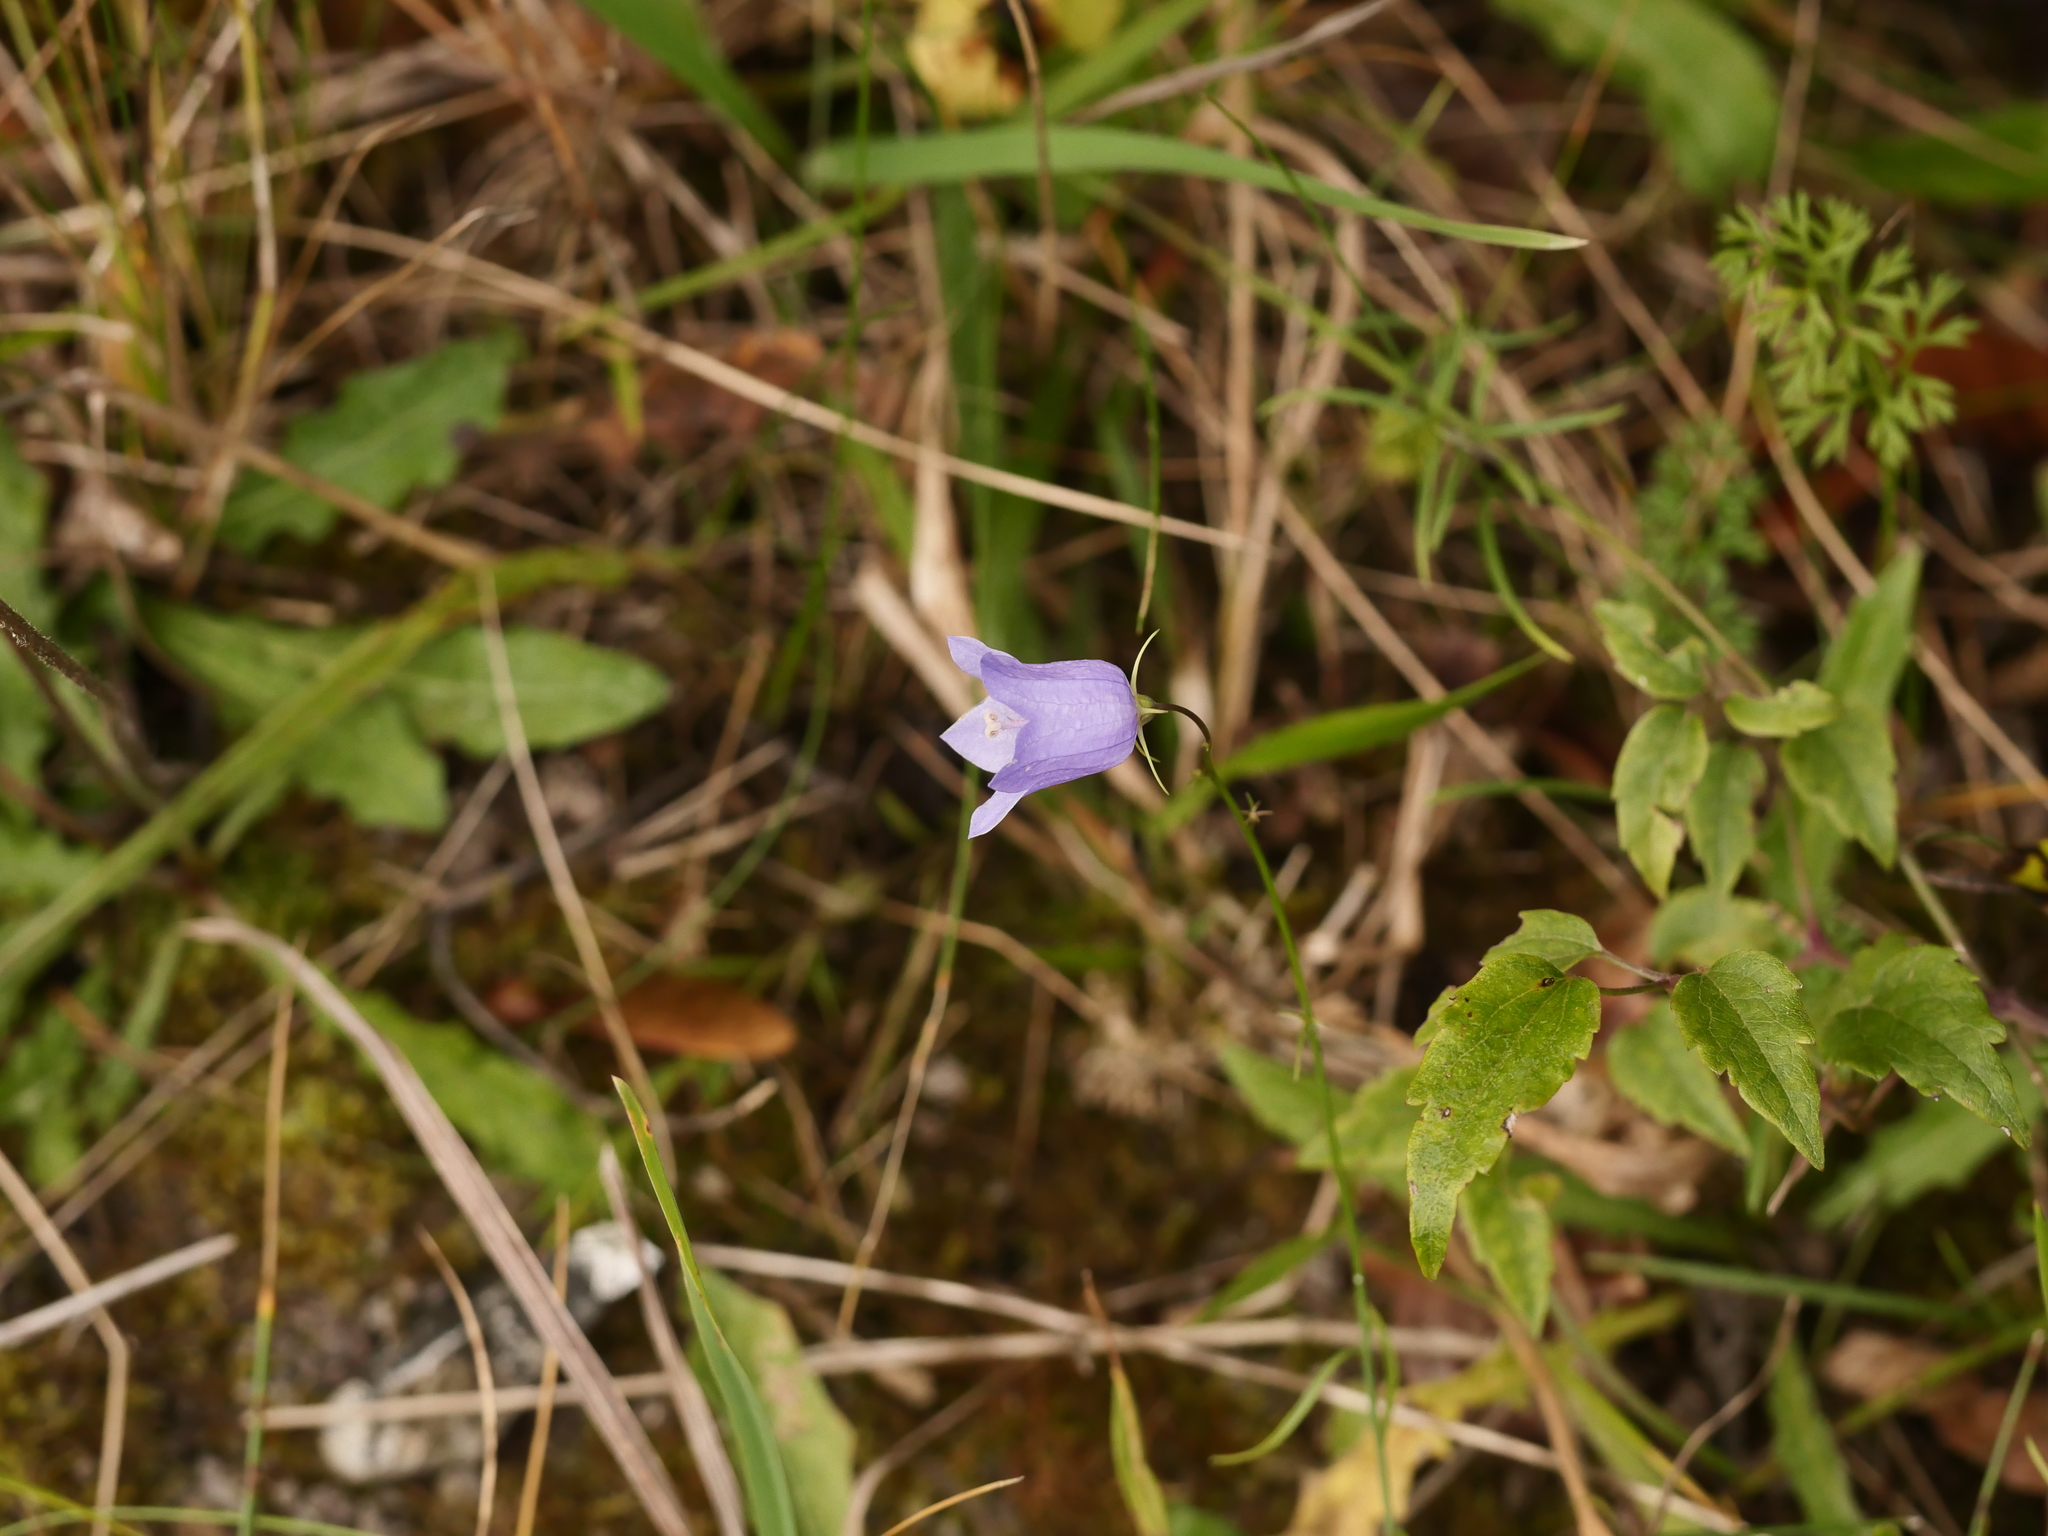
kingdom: Plantae
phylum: Tracheophyta
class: Magnoliopsida
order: Asterales
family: Campanulaceae
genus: Campanula
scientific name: Campanula rotundifolia
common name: Harebell
